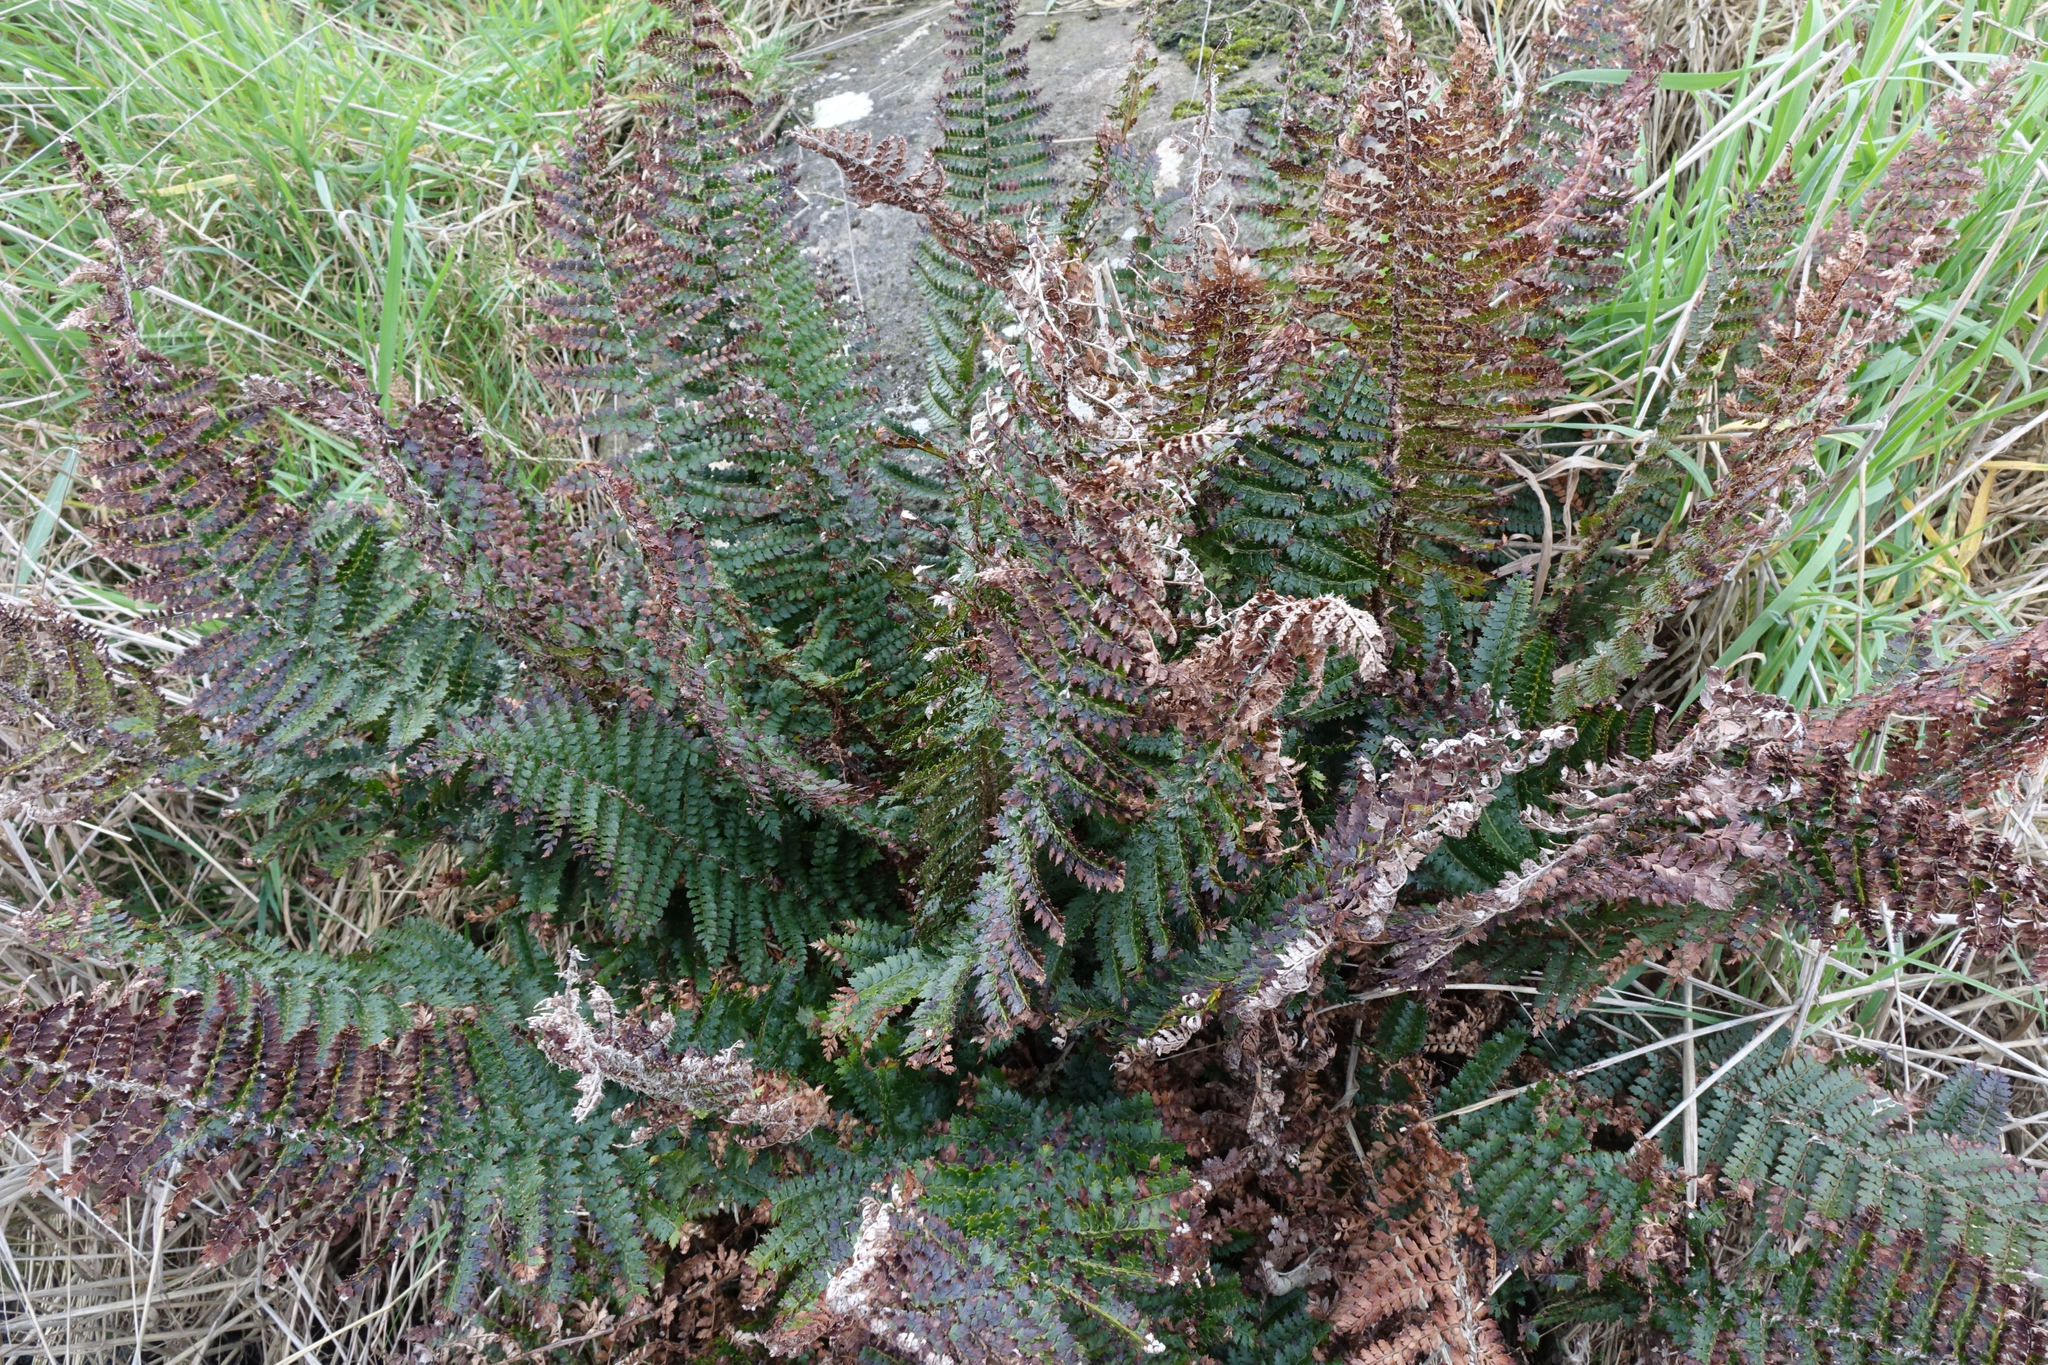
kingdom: Plantae
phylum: Tracheophyta
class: Polypodiopsida
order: Polypodiales
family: Dryopteridaceae
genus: Polystichum
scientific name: Polystichum vestitum
